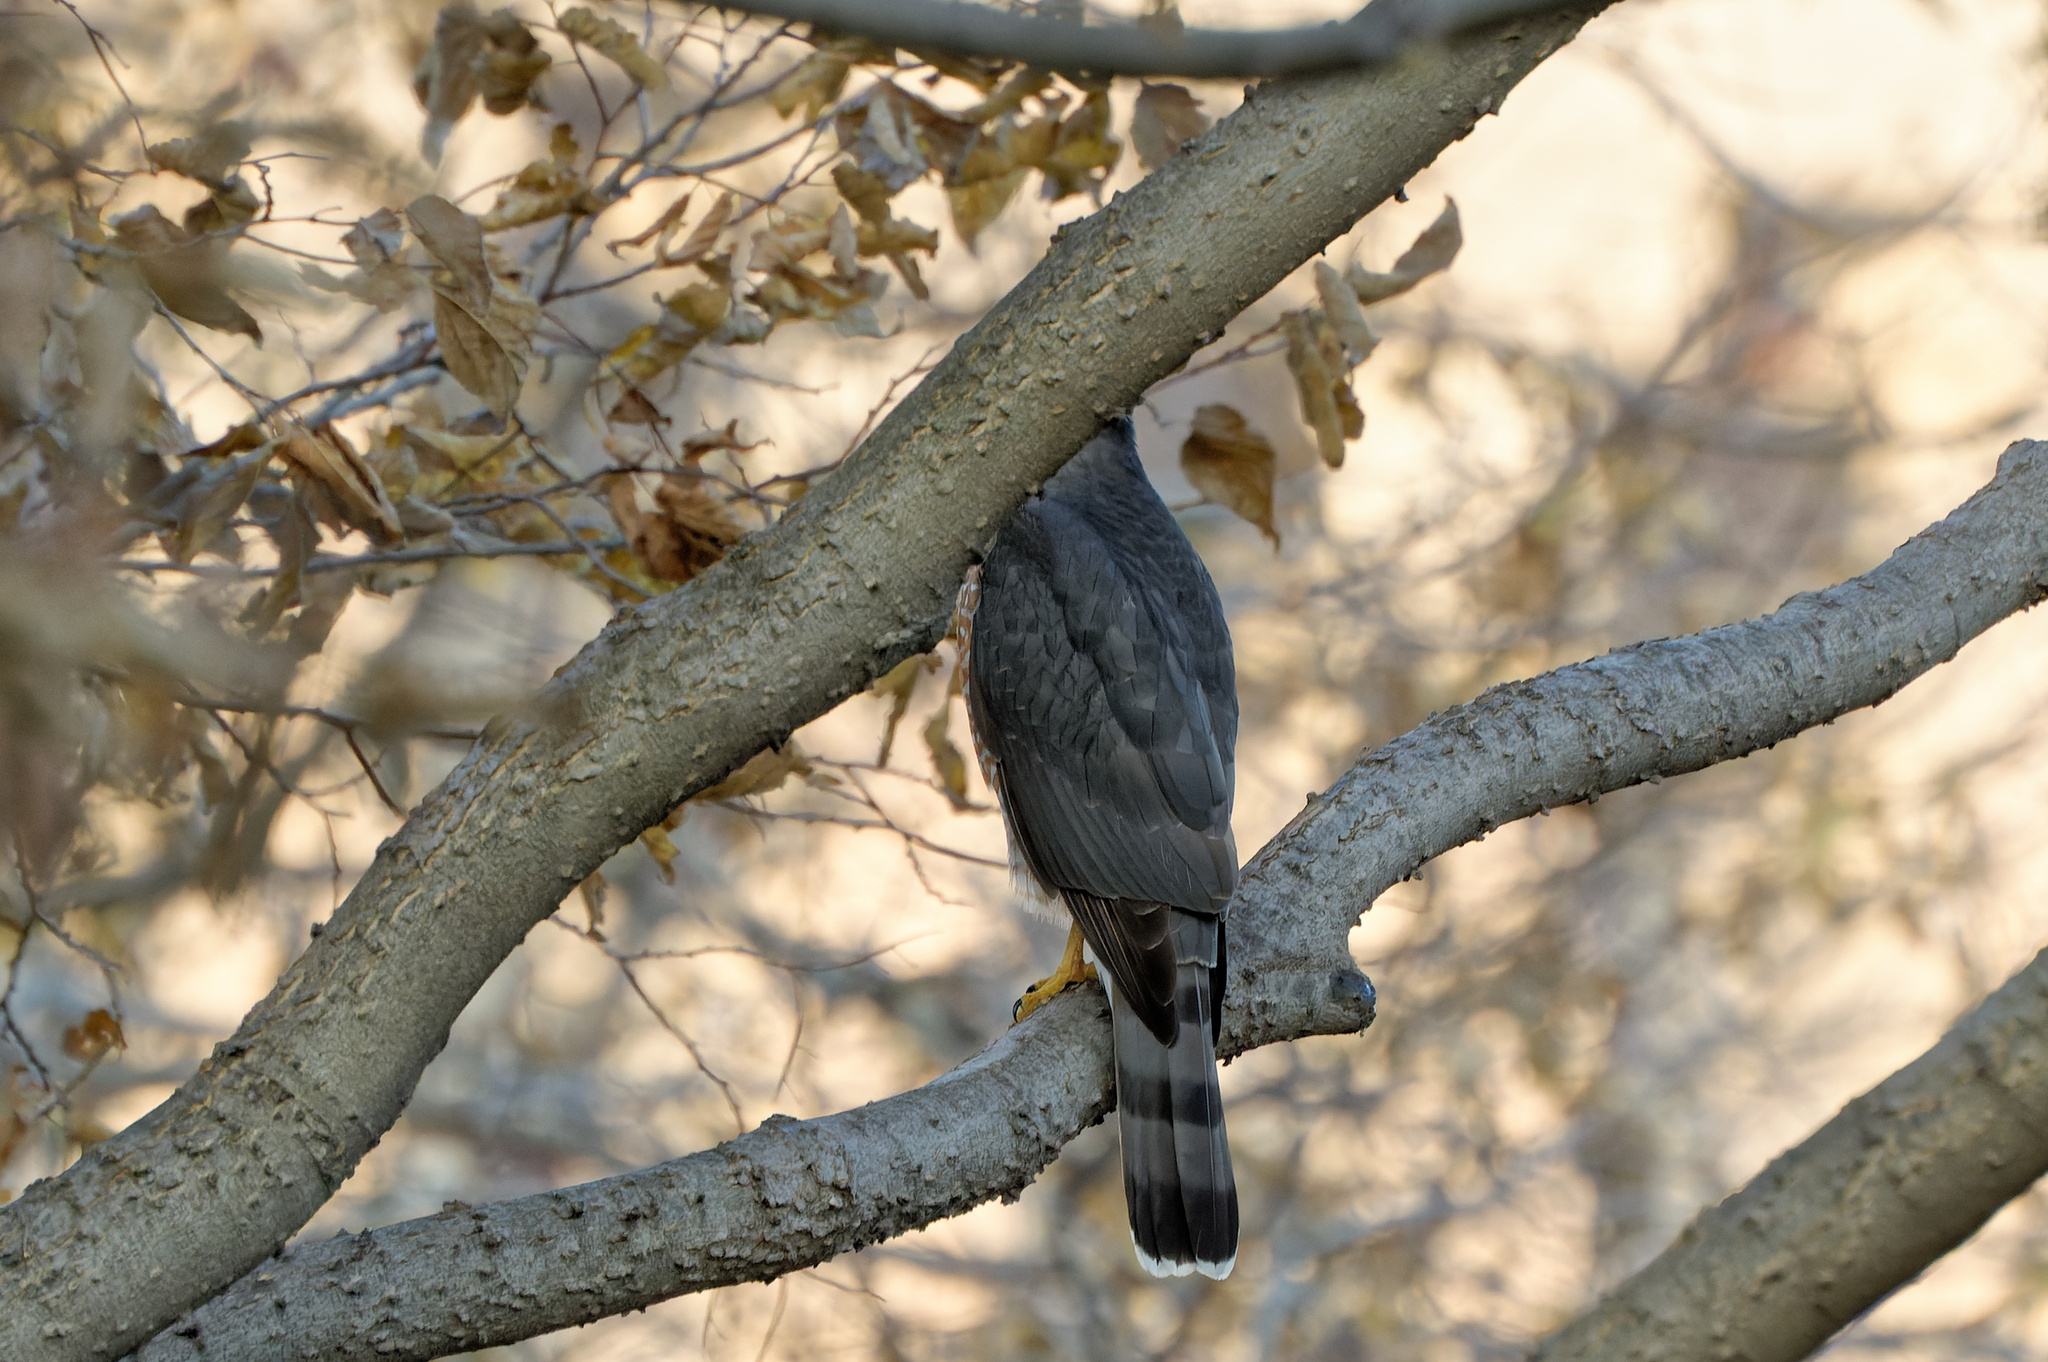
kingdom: Animalia
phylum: Chordata
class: Aves
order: Accipitriformes
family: Accipitridae
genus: Accipiter
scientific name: Accipiter cooperii
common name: Cooper's hawk
